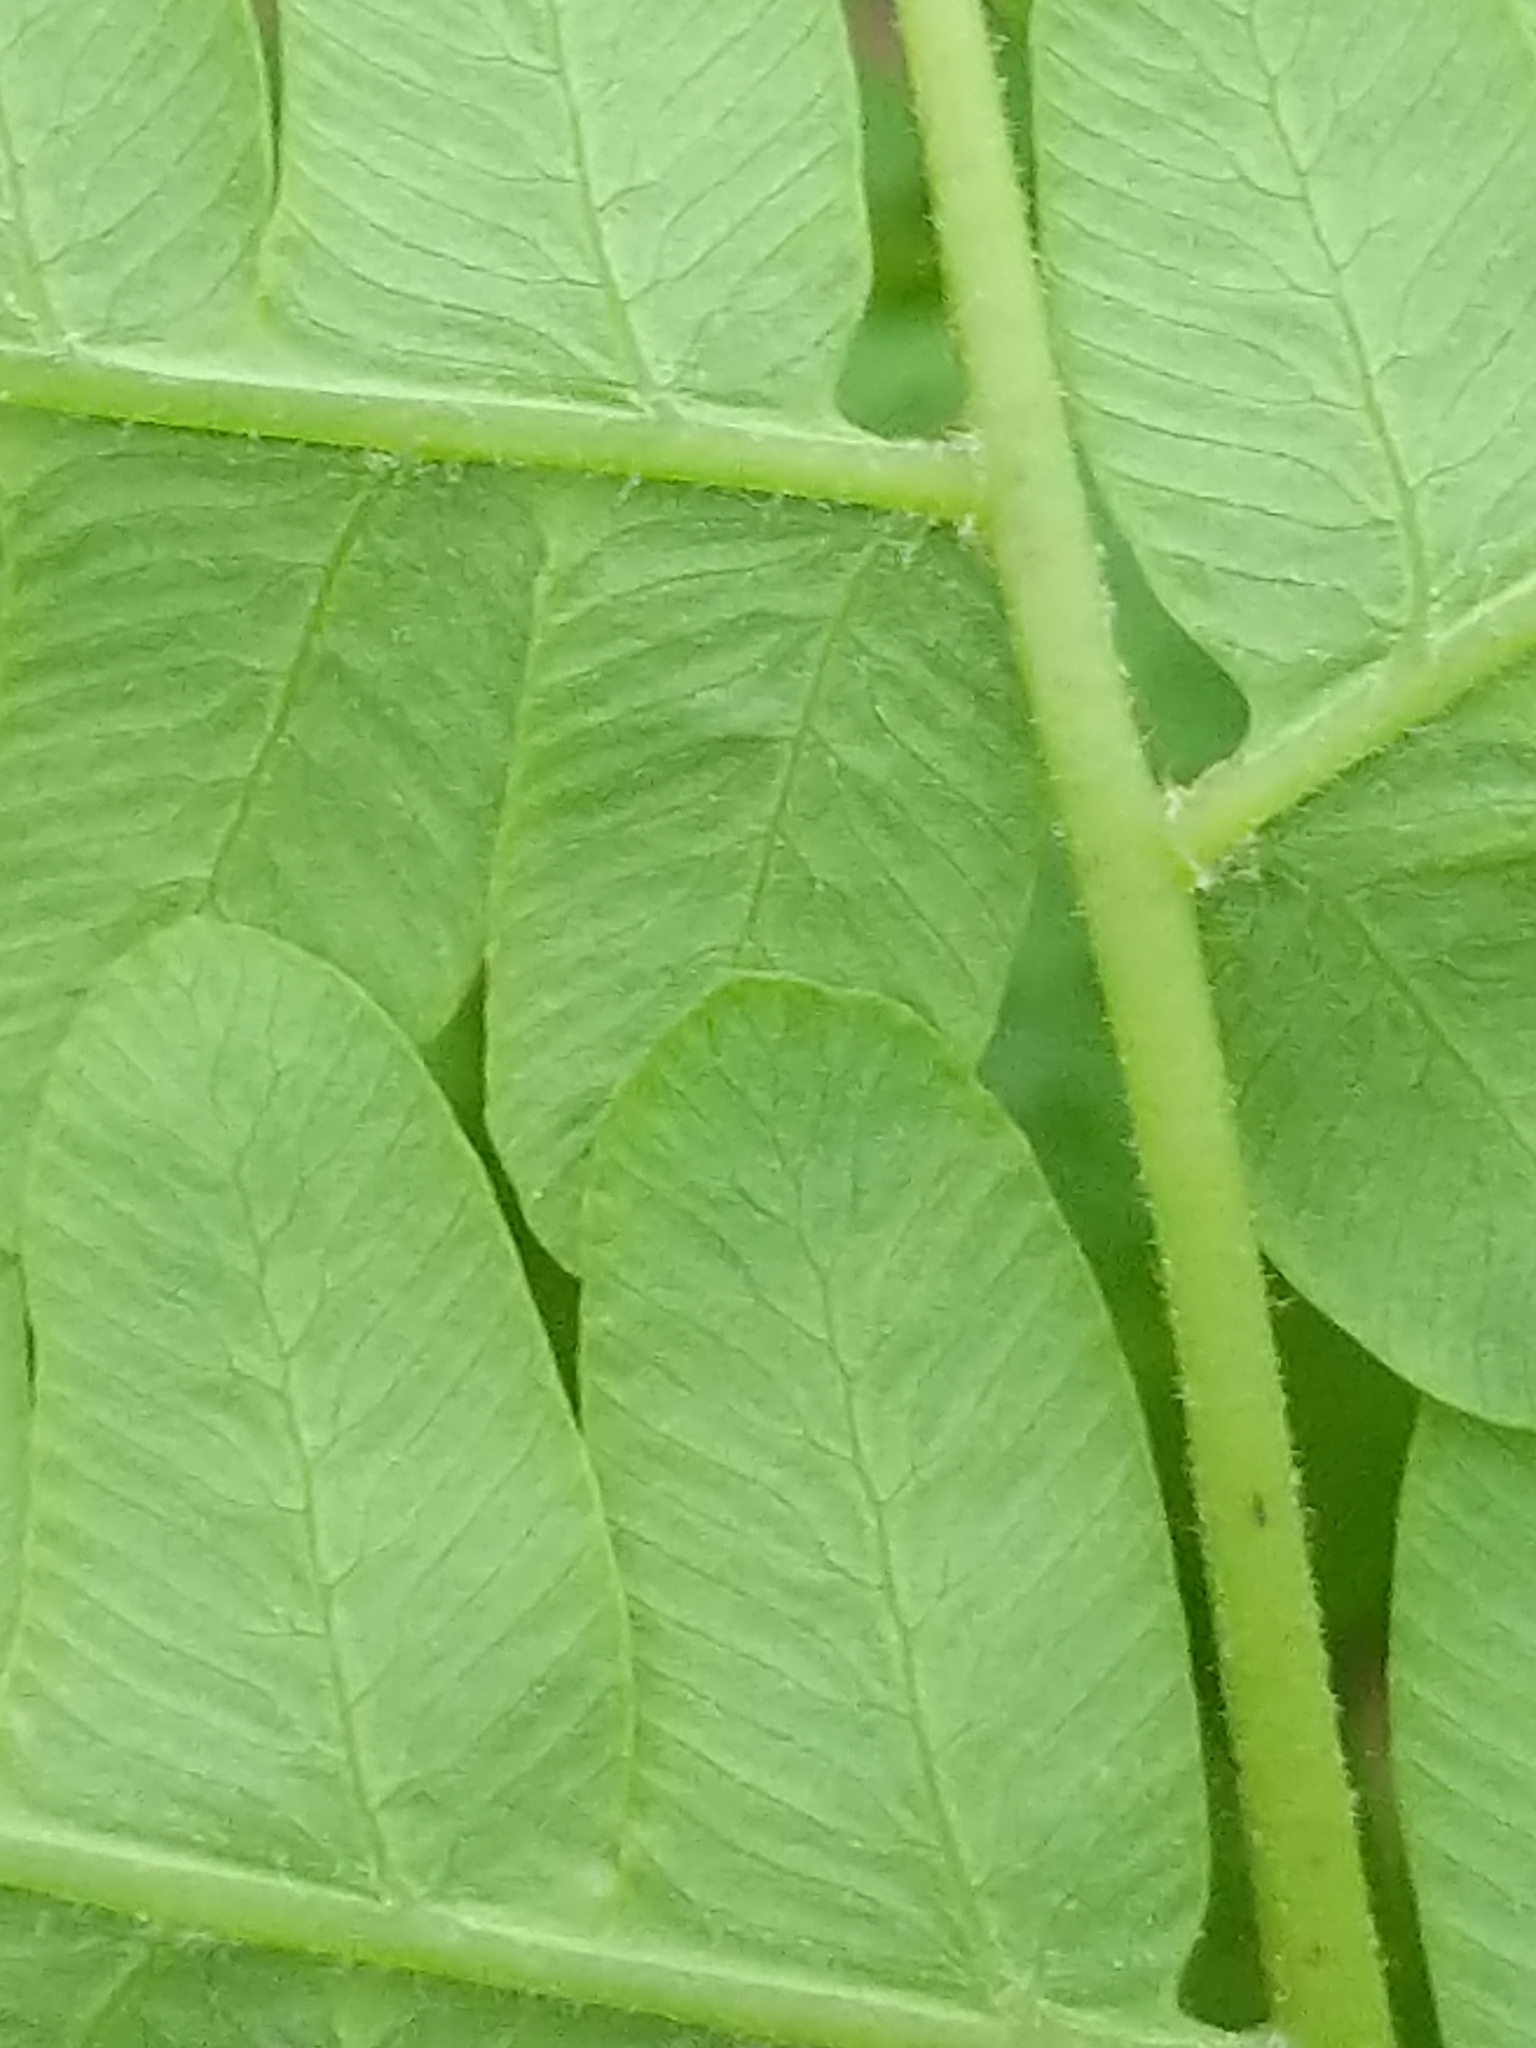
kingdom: Plantae
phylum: Tracheophyta
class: Polypodiopsida
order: Osmundales
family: Osmundaceae
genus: Claytosmunda
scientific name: Claytosmunda claytoniana
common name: Clayton's fern
